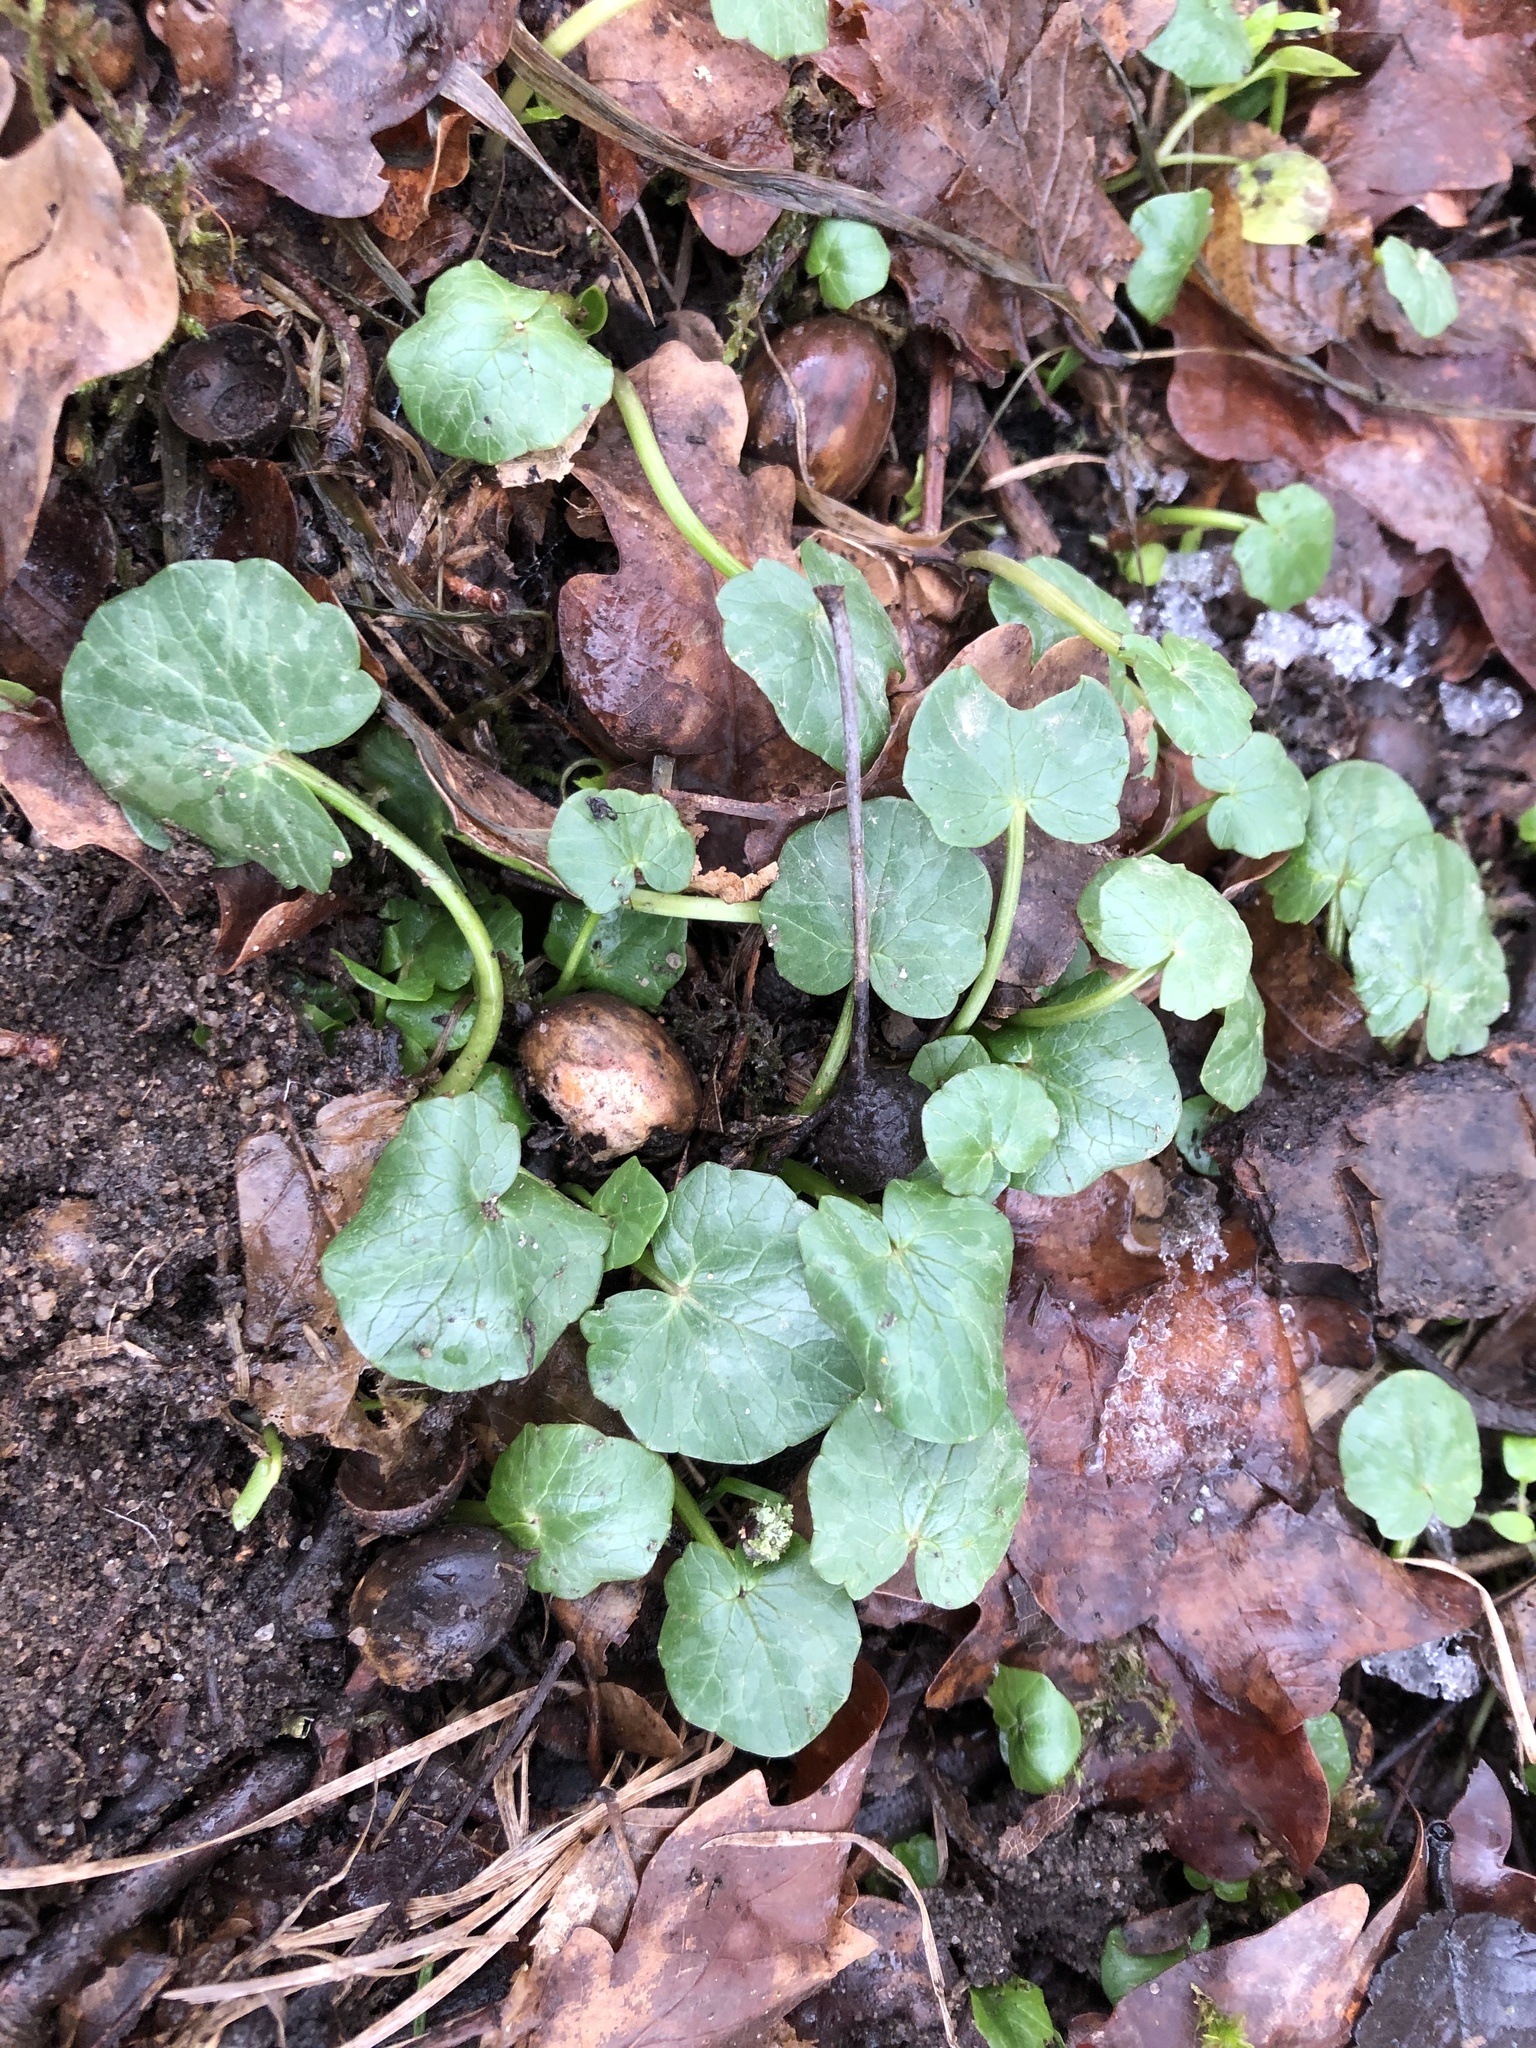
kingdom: Plantae
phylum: Tracheophyta
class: Magnoliopsida
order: Ranunculales
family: Ranunculaceae
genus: Ficaria
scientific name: Ficaria verna
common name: Lesser celandine
